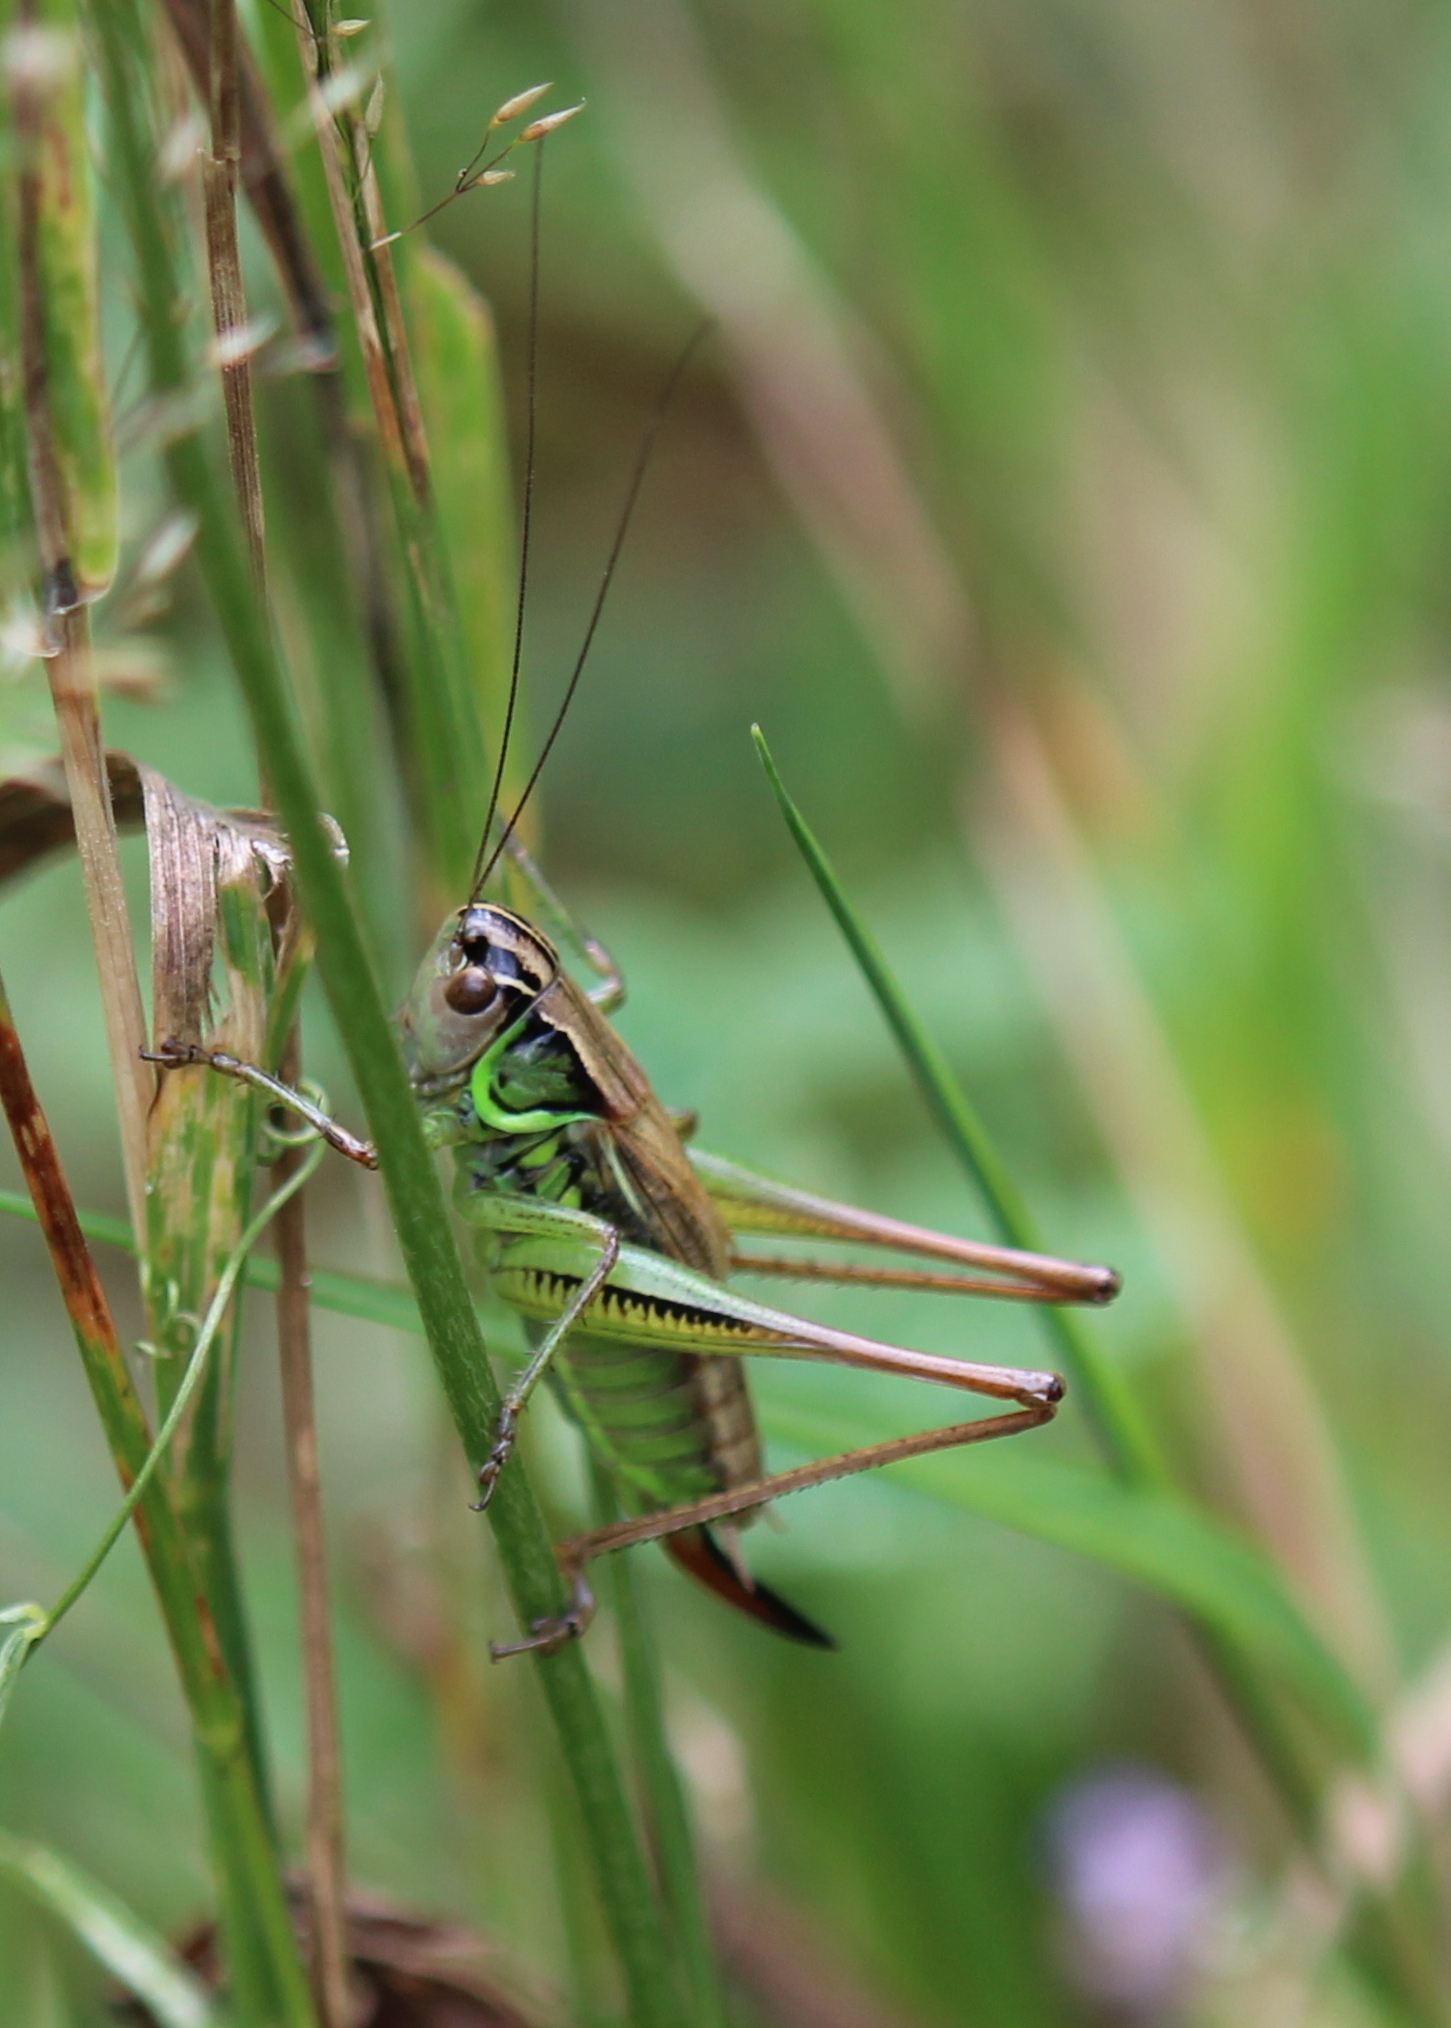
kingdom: Animalia
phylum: Arthropoda
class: Insecta
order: Orthoptera
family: Tettigoniidae
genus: Roeseliana
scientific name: Roeseliana roeselii
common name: Roesel's bush cricket
